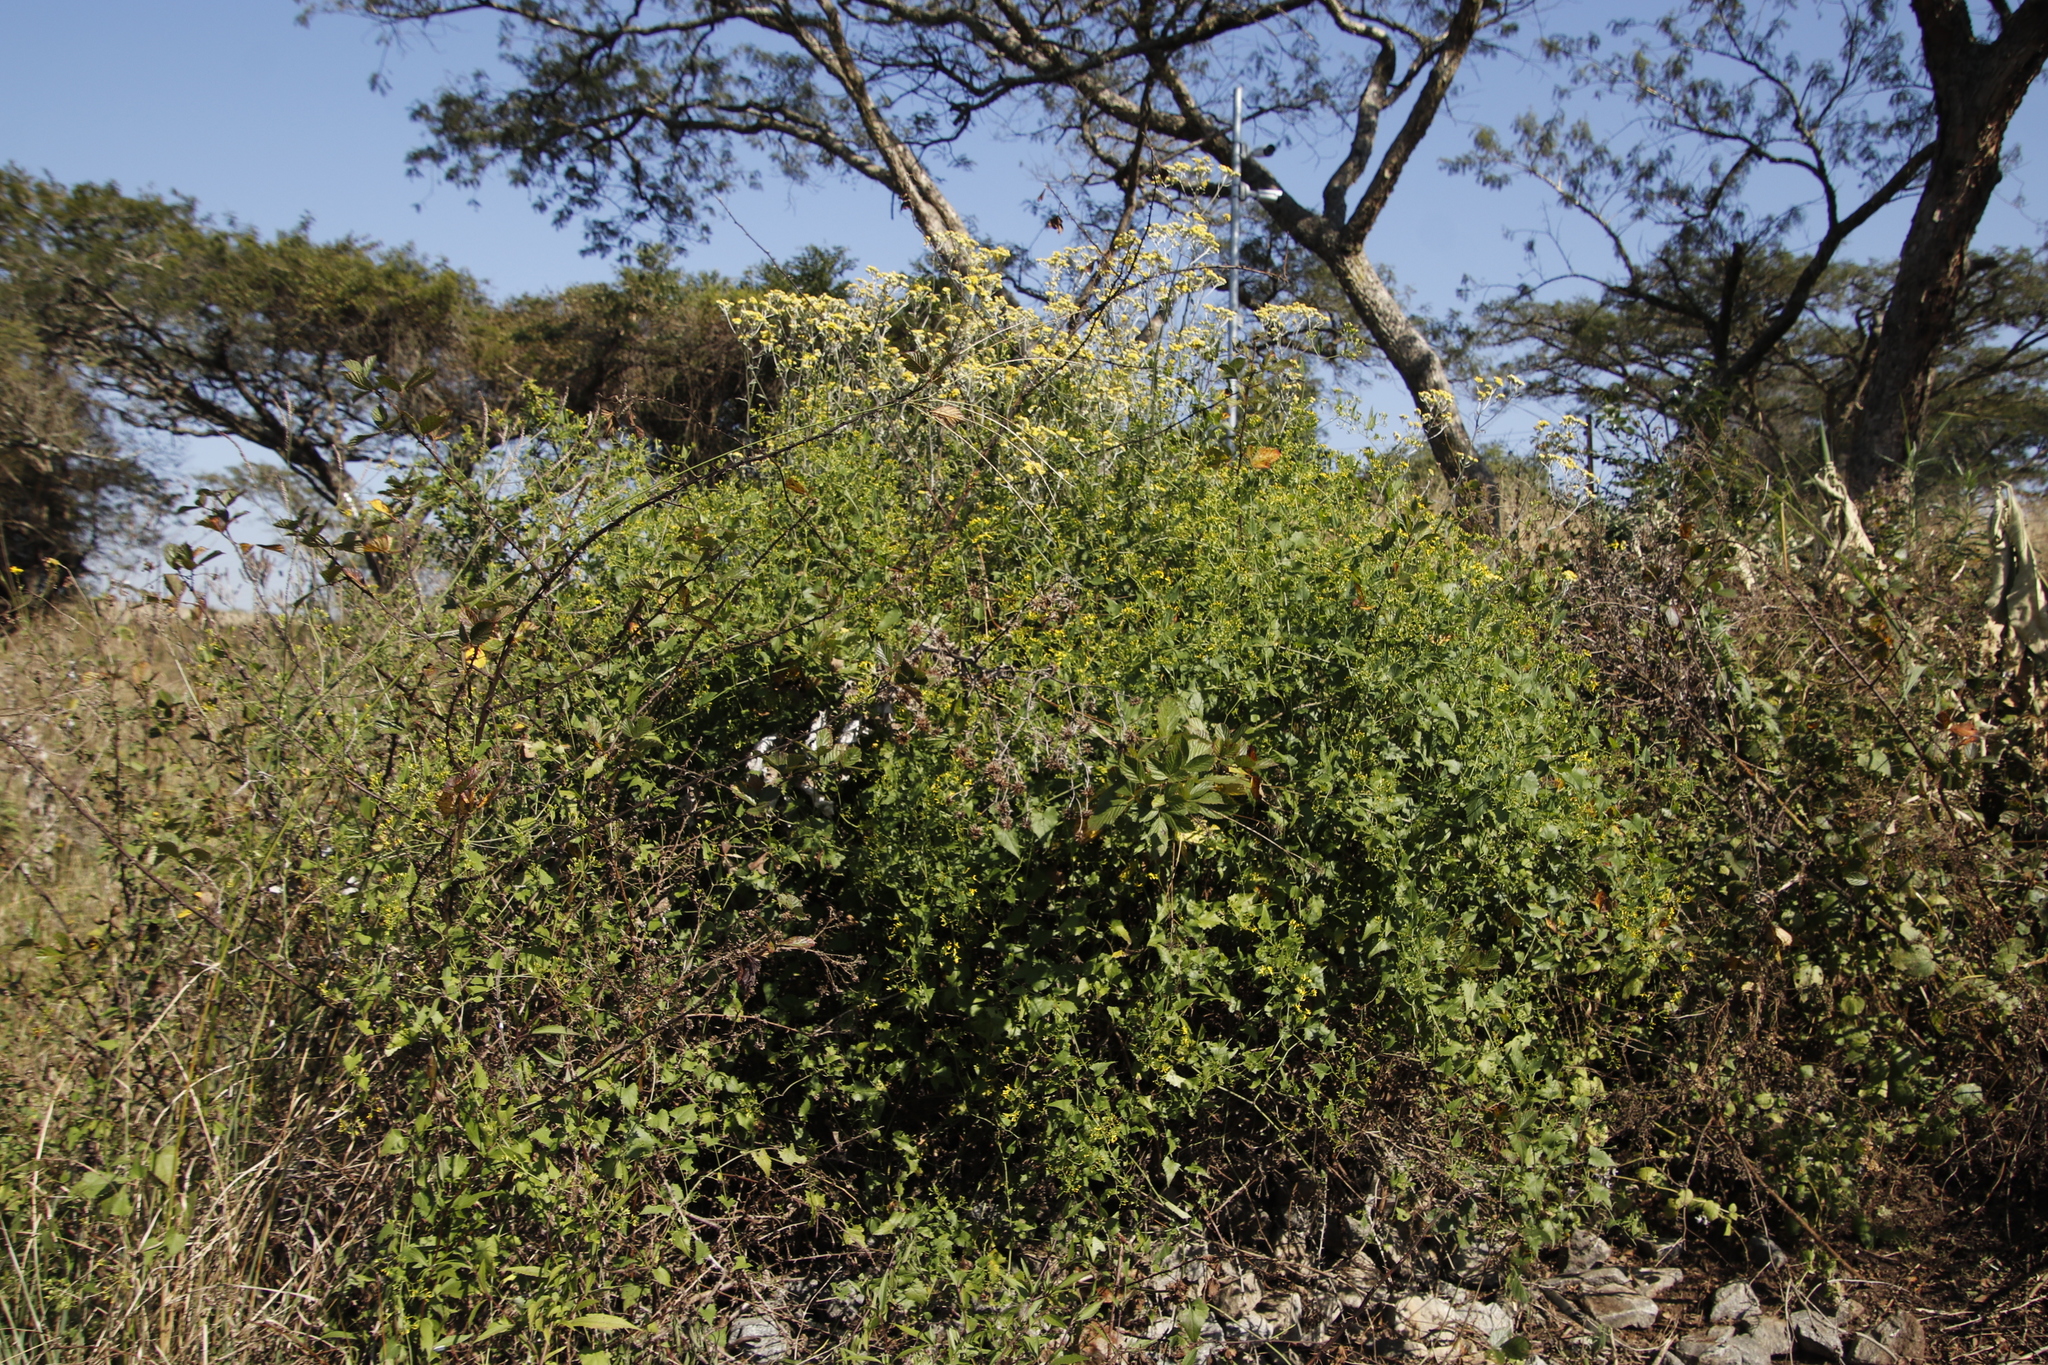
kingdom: Plantae
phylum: Tracheophyta
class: Magnoliopsida
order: Lamiales
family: Verbenaceae
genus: Lantana
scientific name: Lantana camara
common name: Lantana
